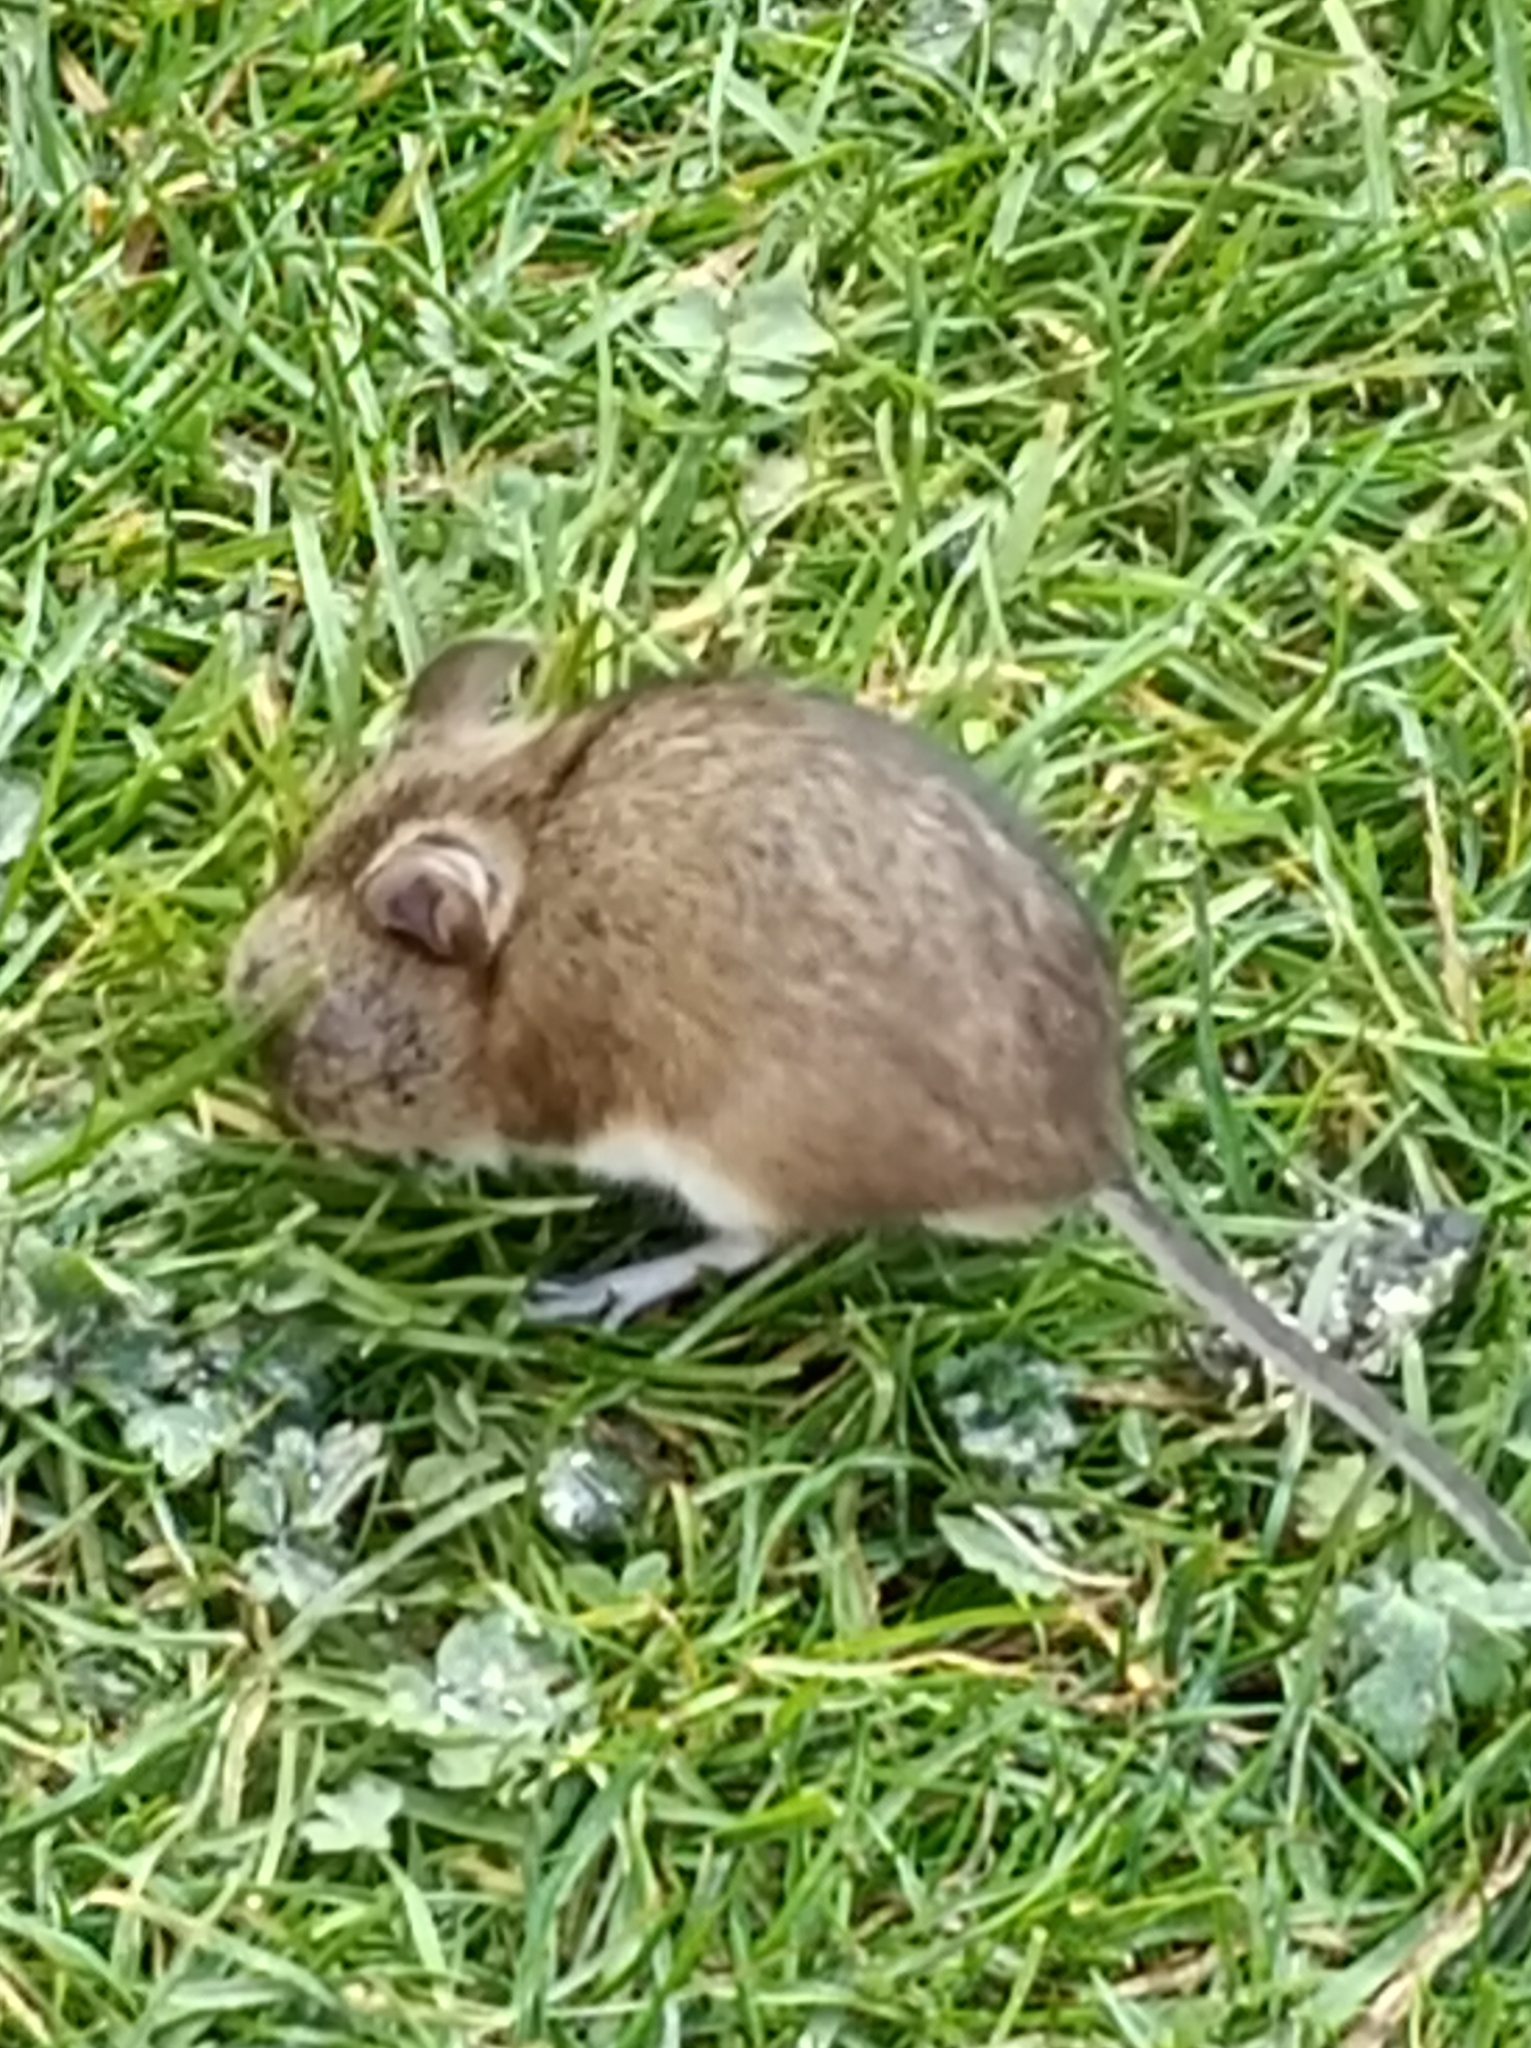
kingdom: Animalia
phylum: Chordata
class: Mammalia
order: Rodentia
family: Muridae
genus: Apodemus
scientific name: Apodemus sylvaticus
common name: Wood mouse
